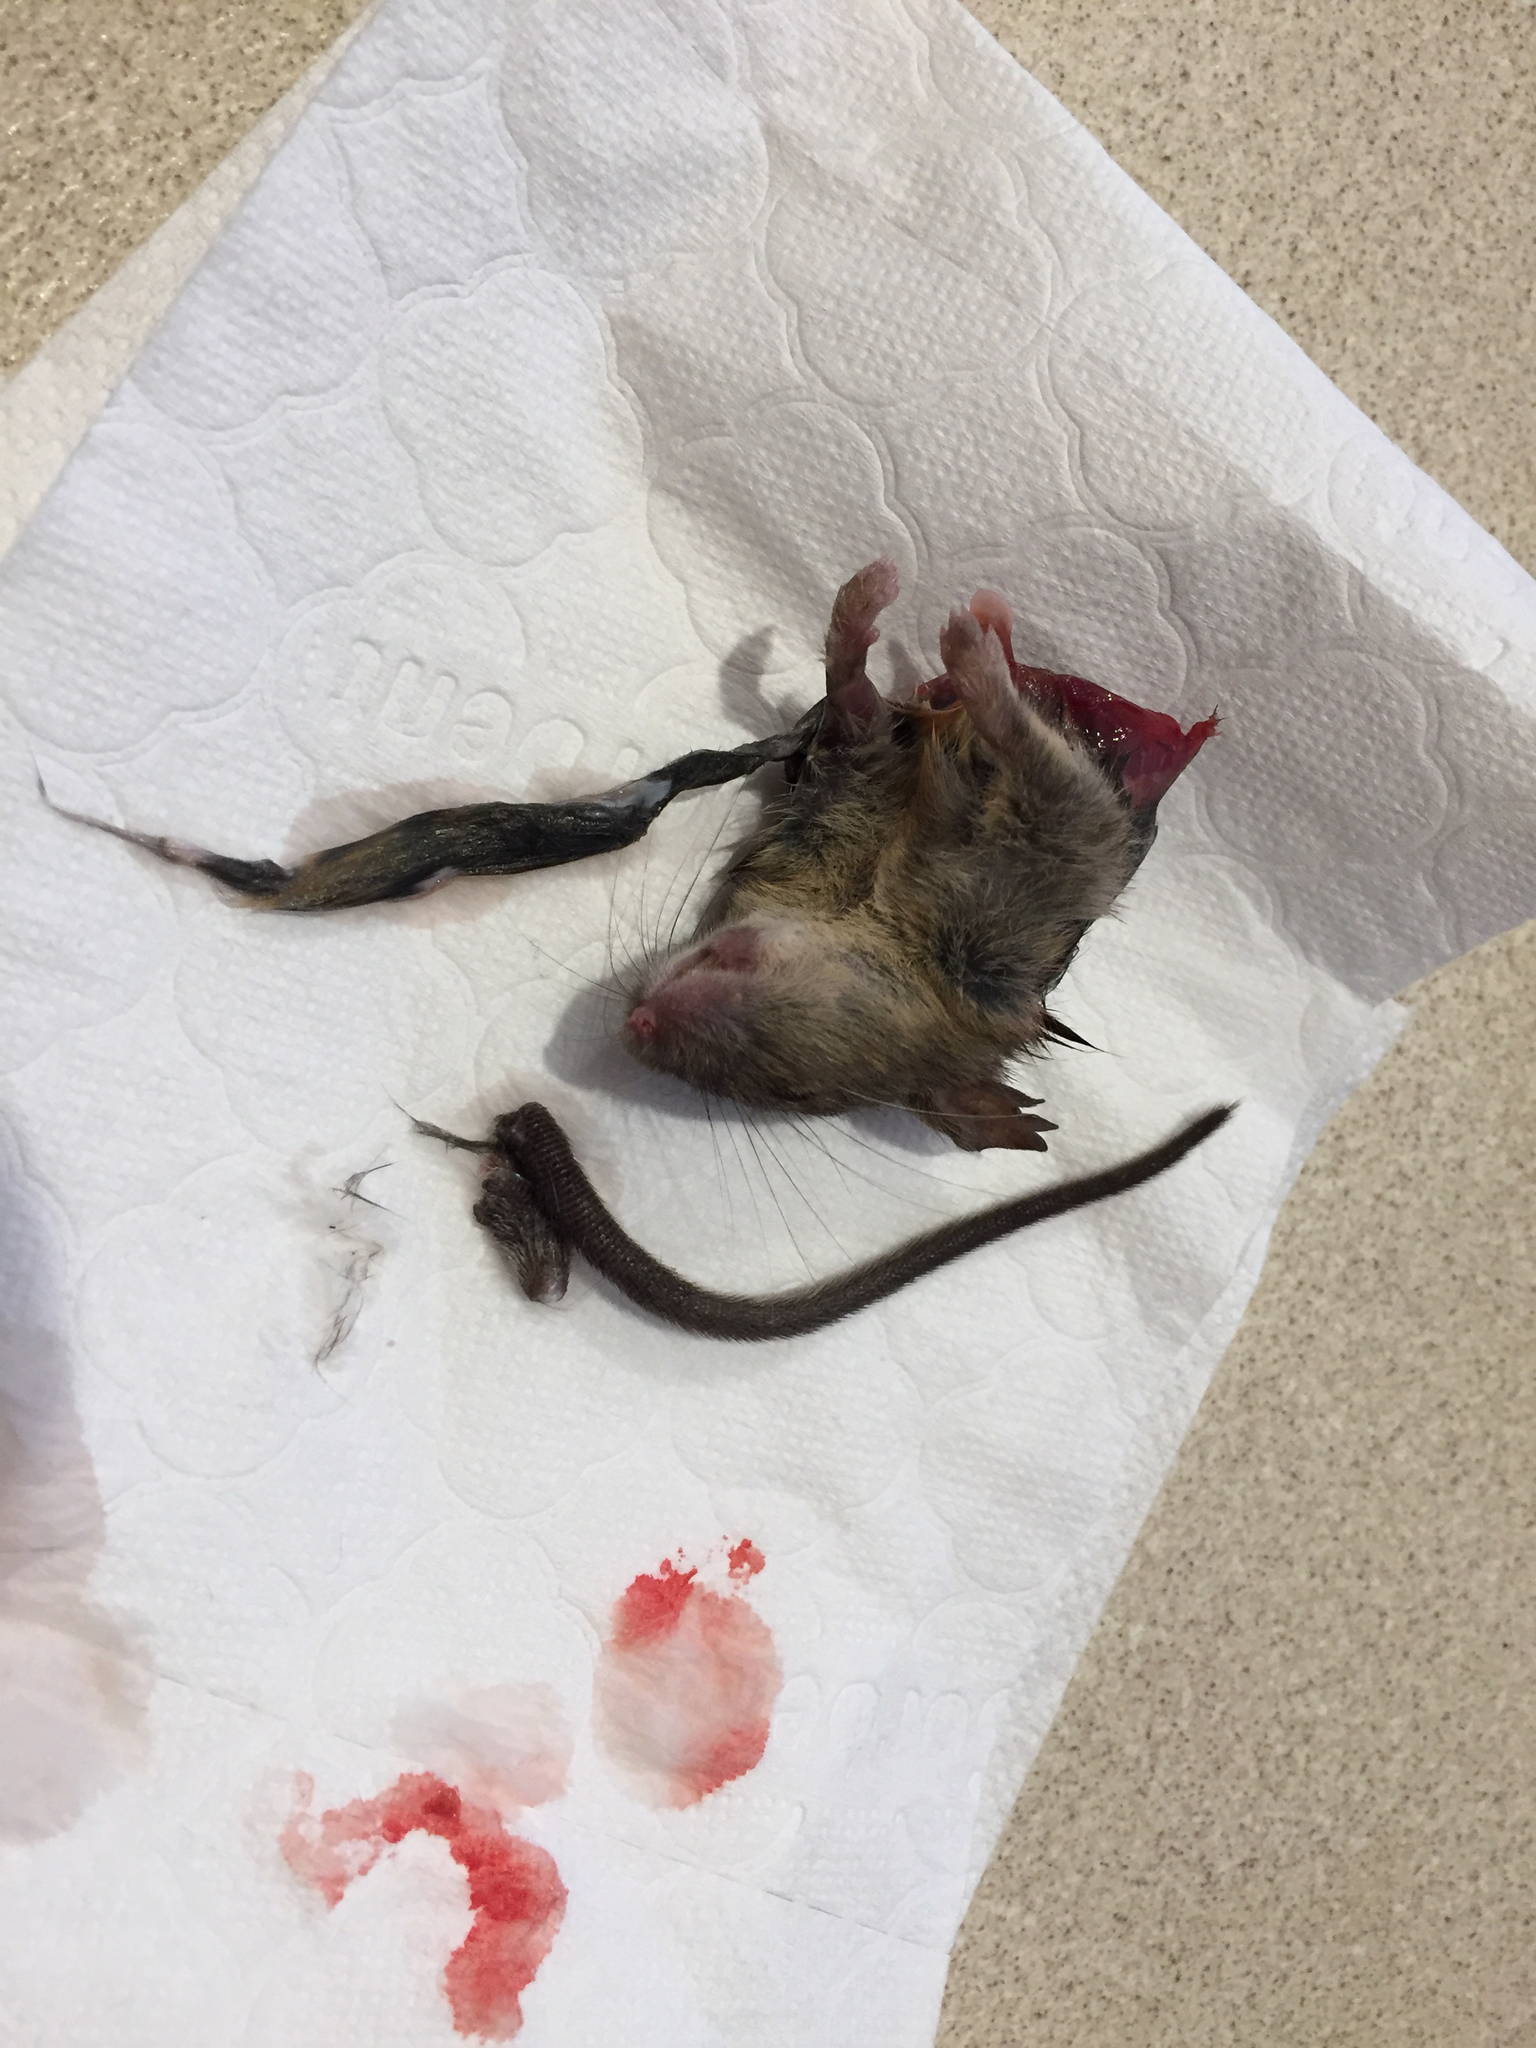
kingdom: Animalia
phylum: Chordata
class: Mammalia
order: Rodentia
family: Muridae
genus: Mus
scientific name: Mus musculus
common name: House mouse
